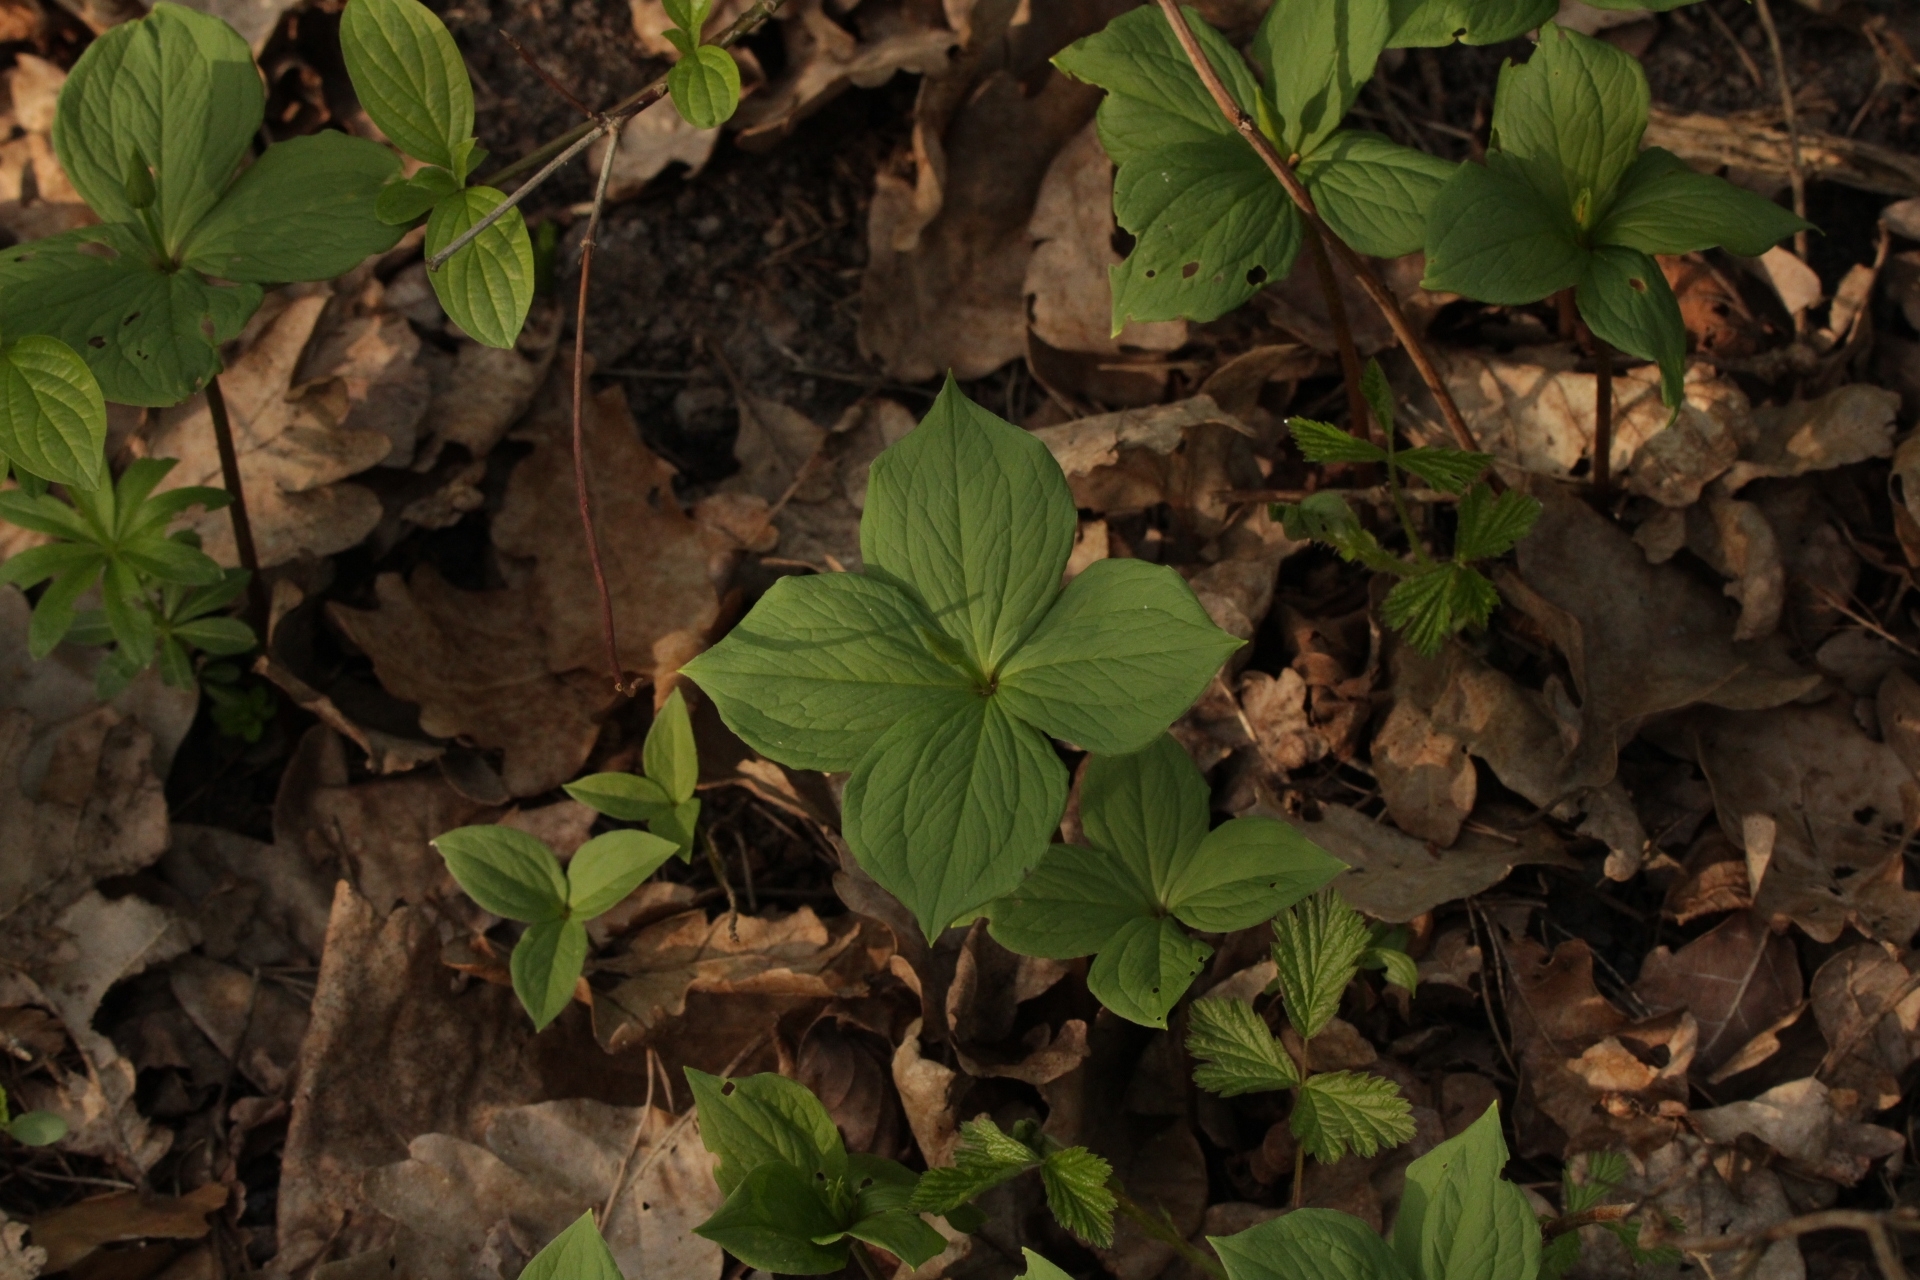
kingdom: Plantae
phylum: Tracheophyta
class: Liliopsida
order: Liliales
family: Melanthiaceae
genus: Paris
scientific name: Paris quadrifolia
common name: Herb-paris
